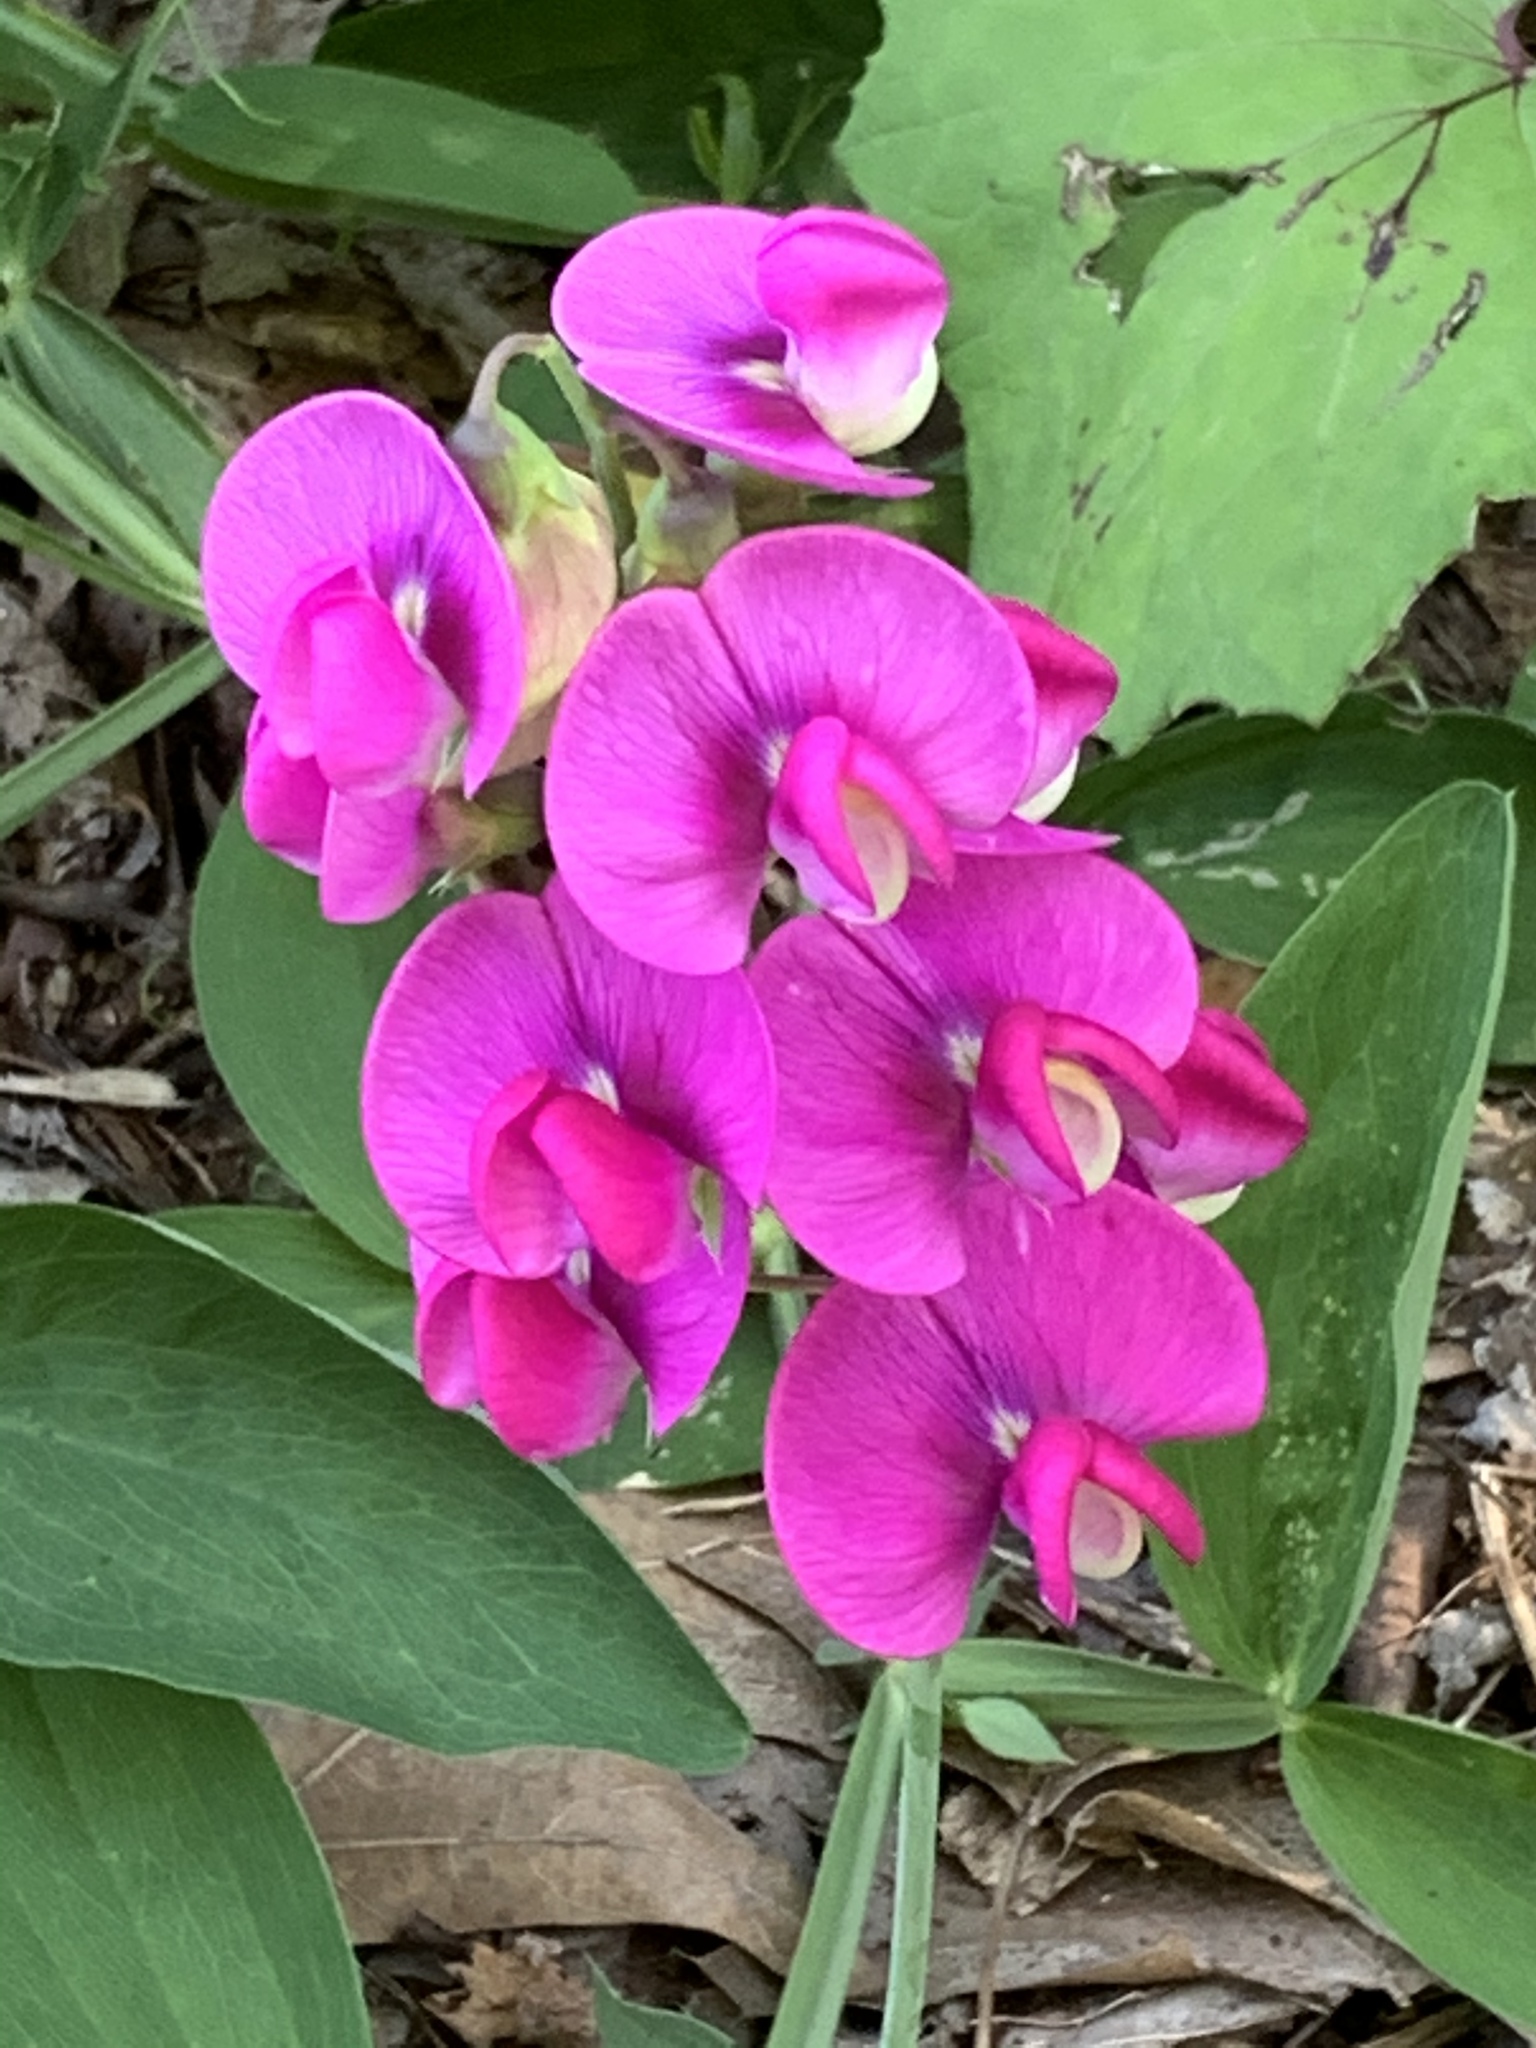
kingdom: Plantae
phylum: Tracheophyta
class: Magnoliopsida
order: Fabales
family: Fabaceae
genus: Lathyrus
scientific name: Lathyrus latifolius
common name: Perennial pea
